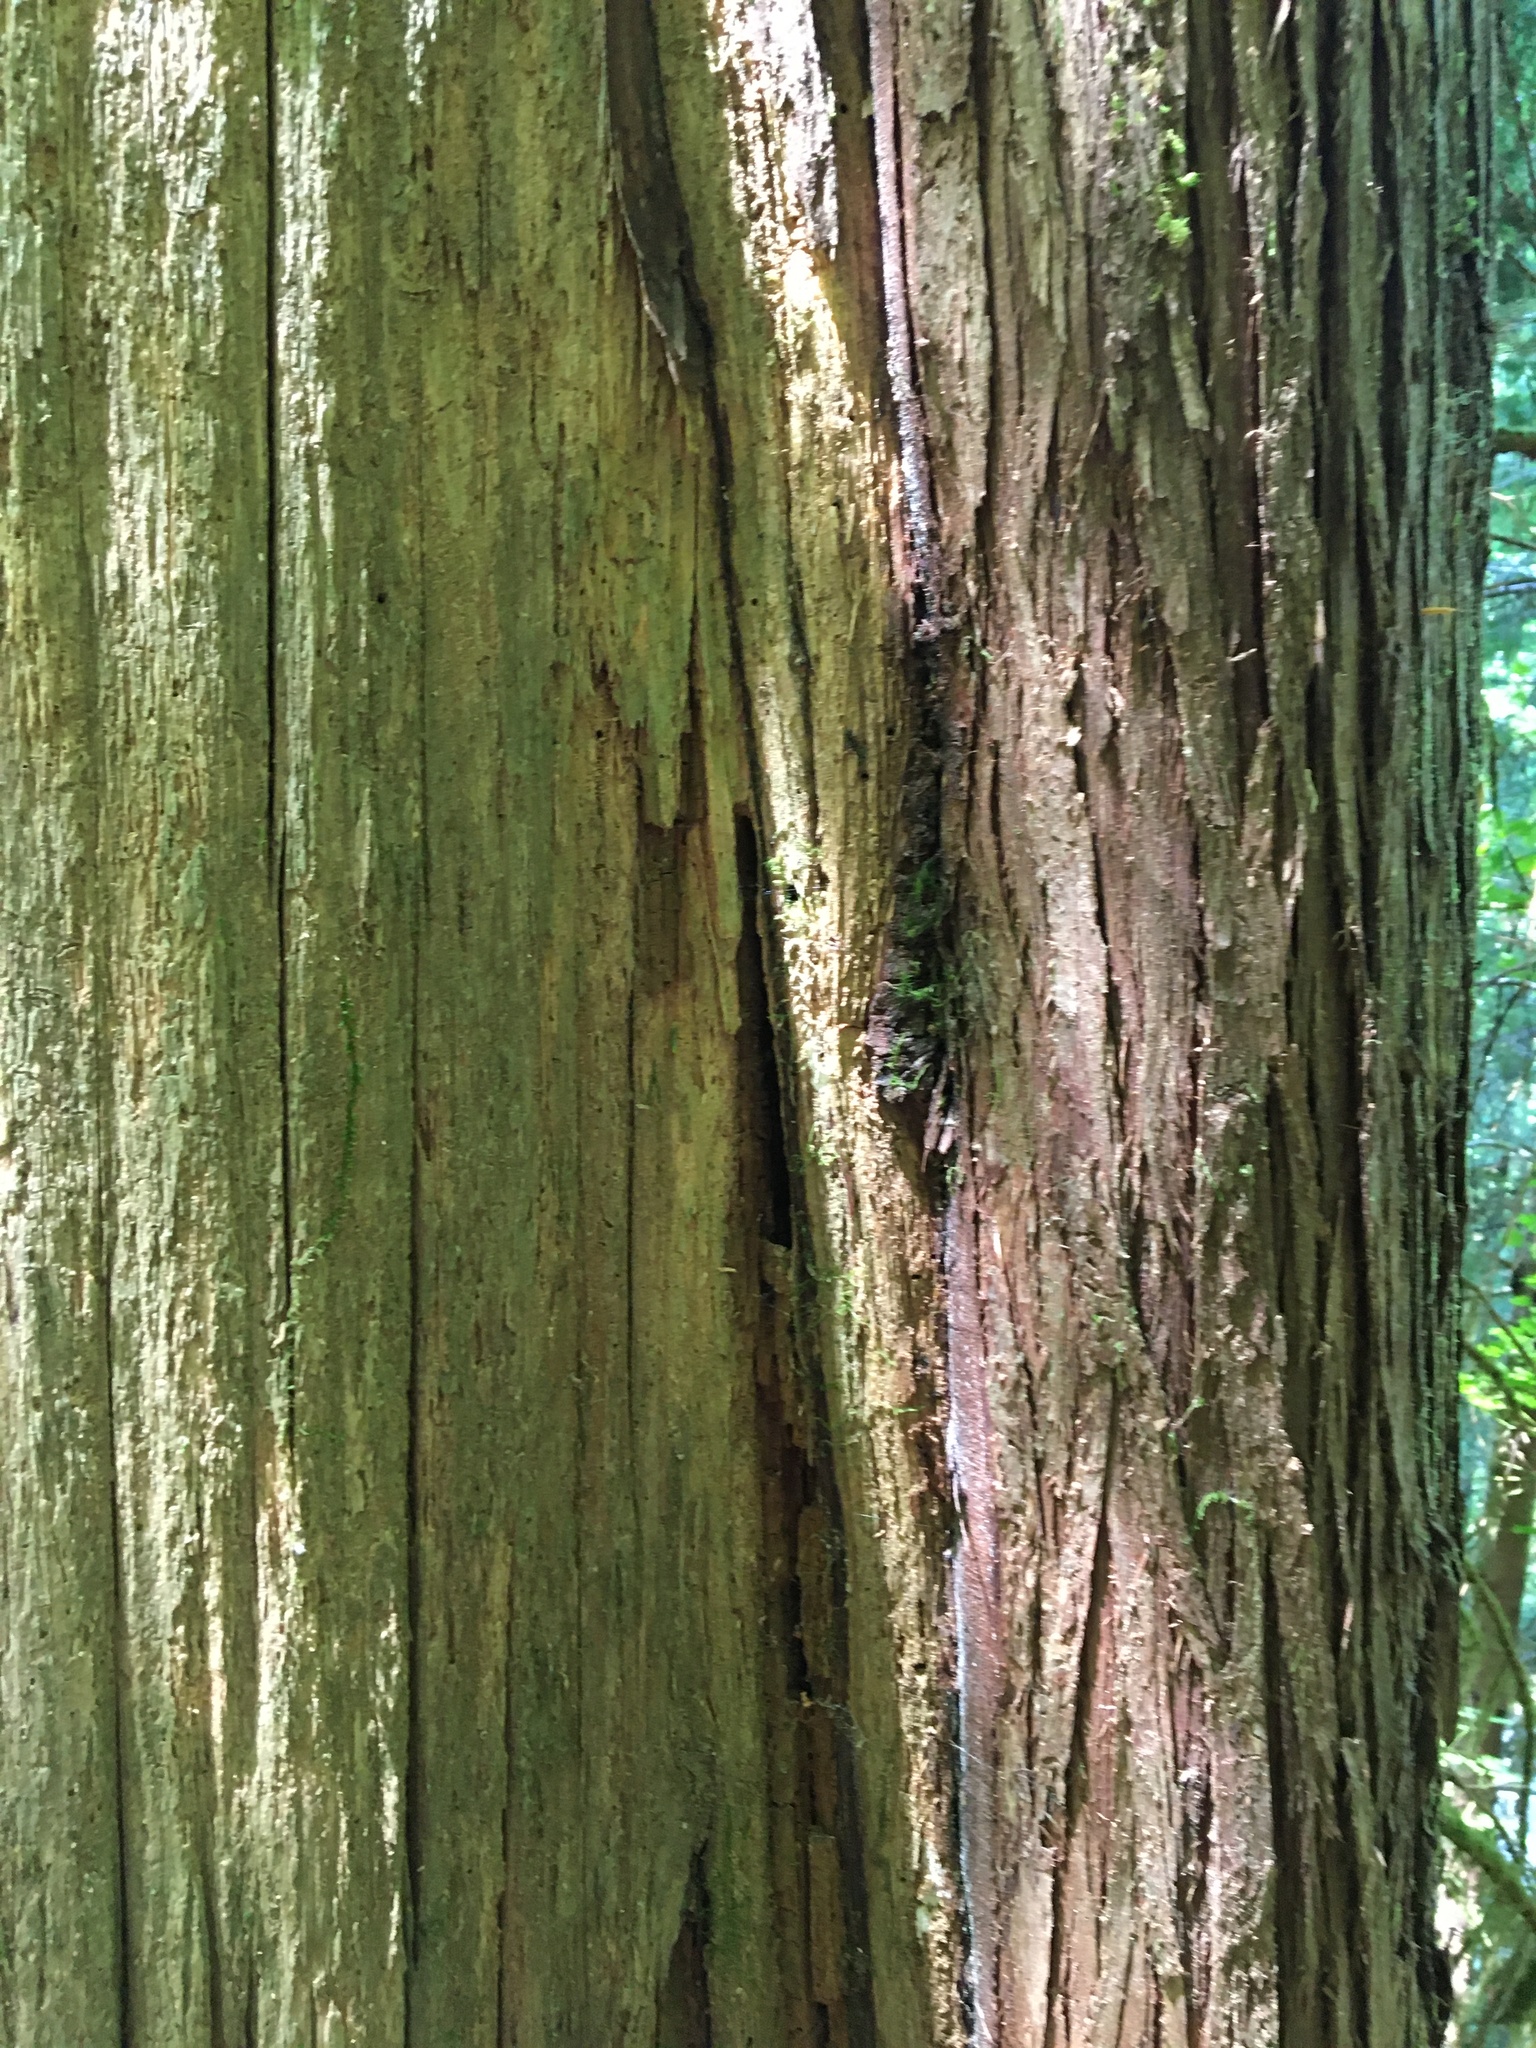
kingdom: Plantae
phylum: Tracheophyta
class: Pinopsida
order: Pinales
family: Cupressaceae
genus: Thuja
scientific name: Thuja plicata
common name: Western red-cedar
